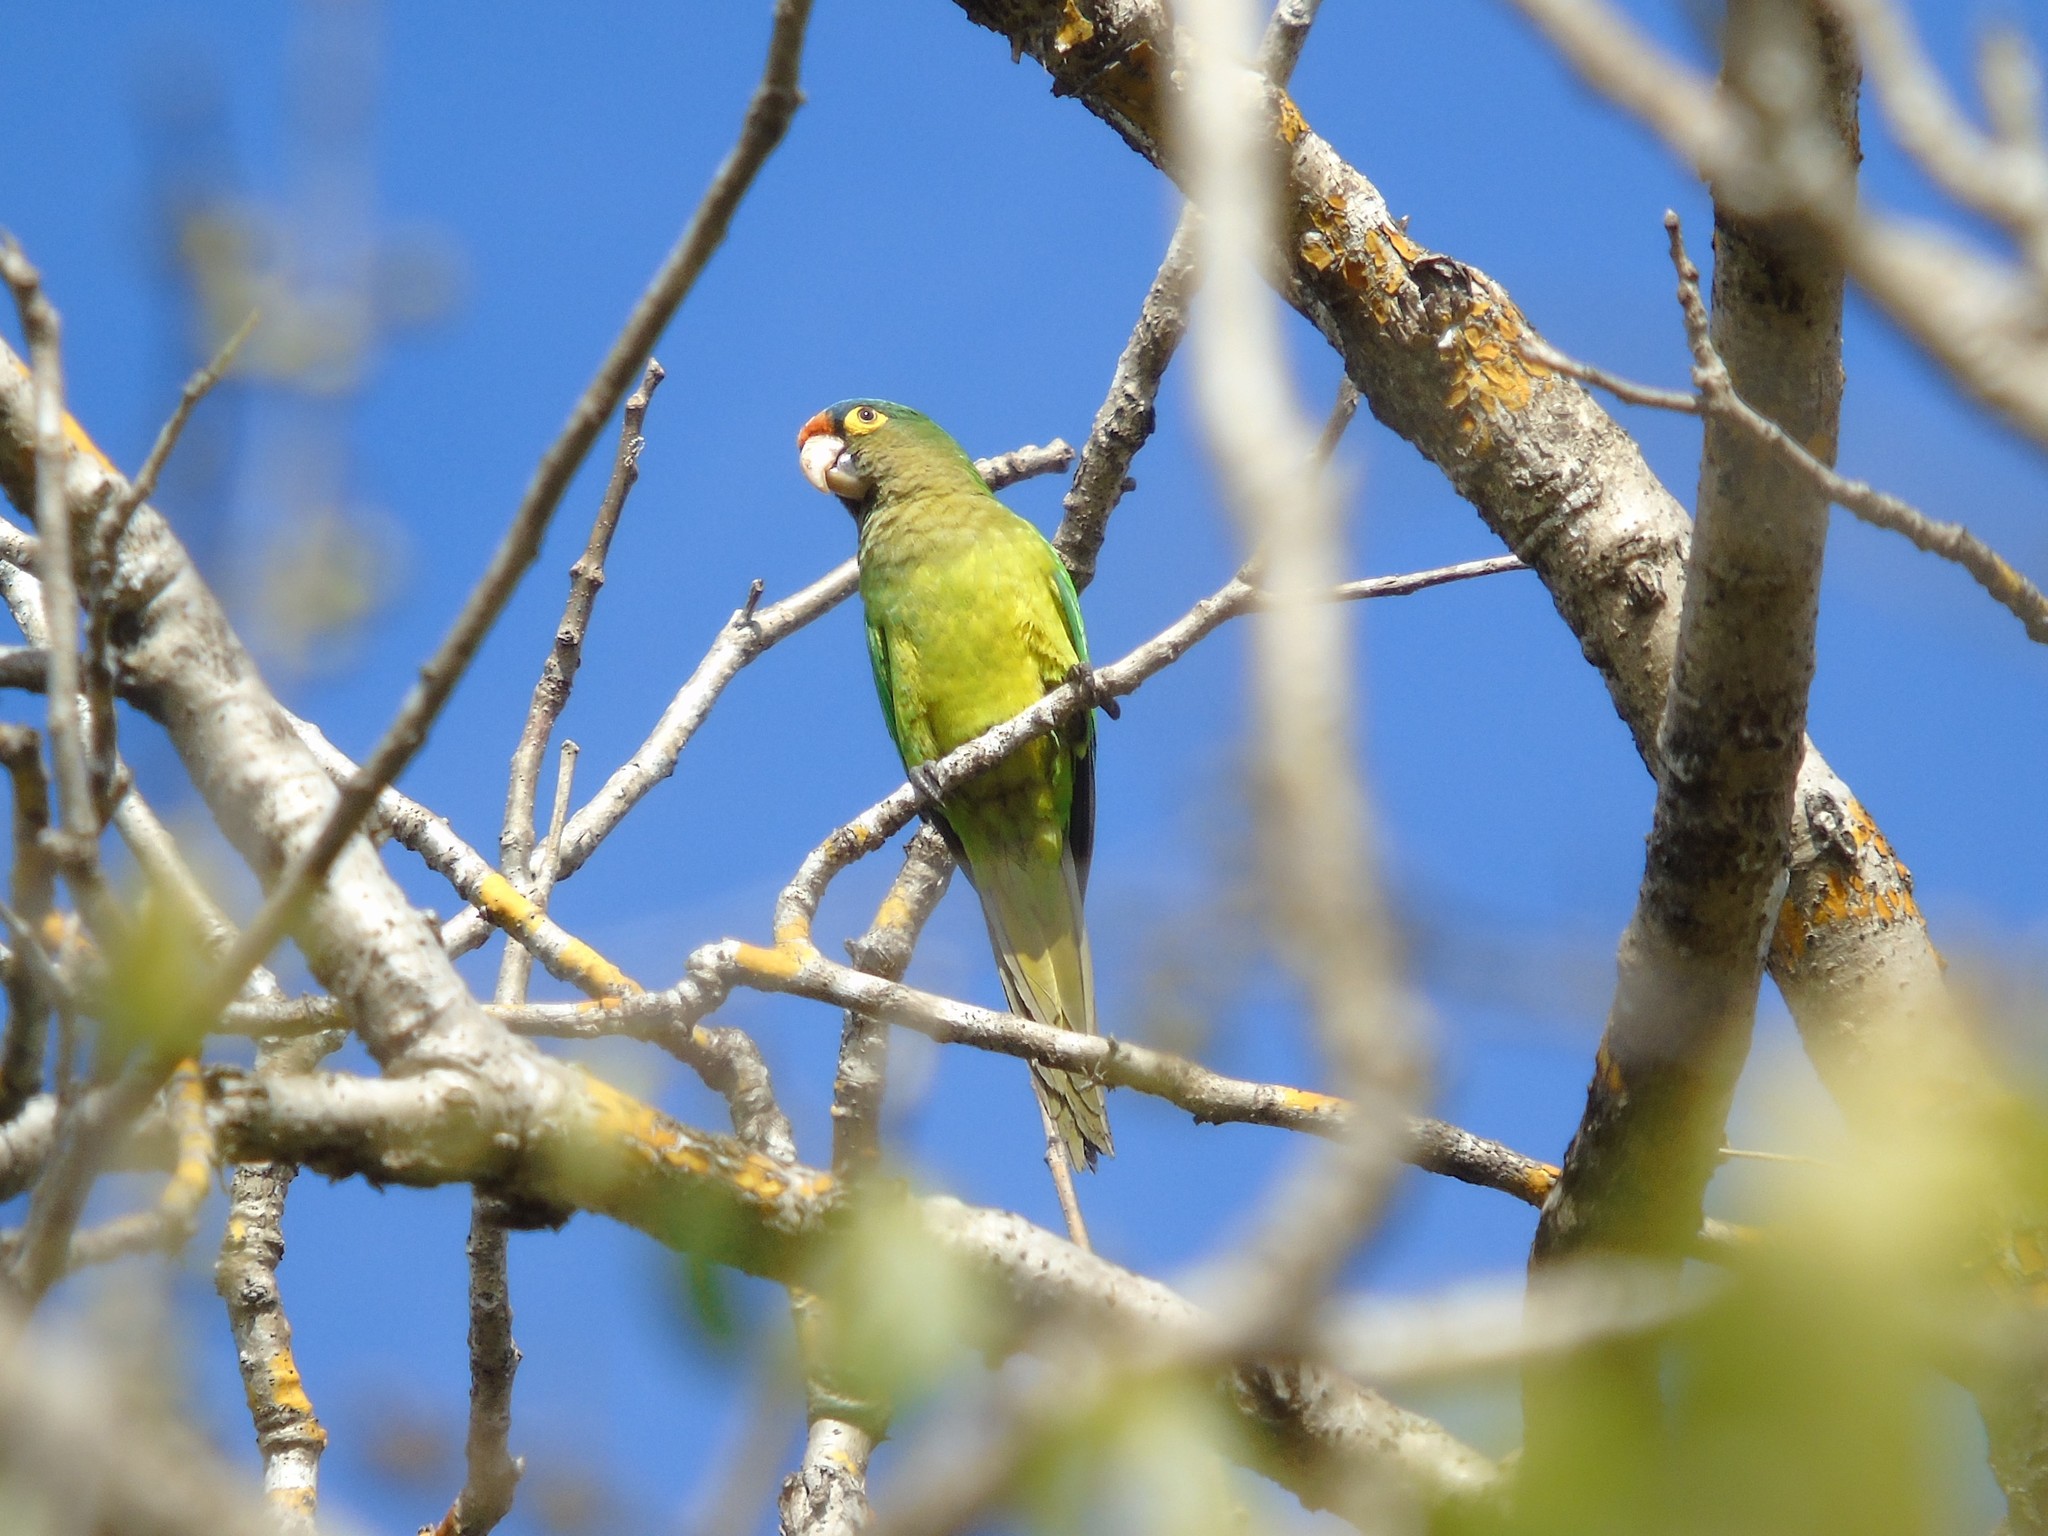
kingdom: Animalia
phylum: Chordata
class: Aves
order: Psittaciformes
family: Psittacidae
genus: Aratinga
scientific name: Aratinga canicularis
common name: Orange-fronted parakeet
